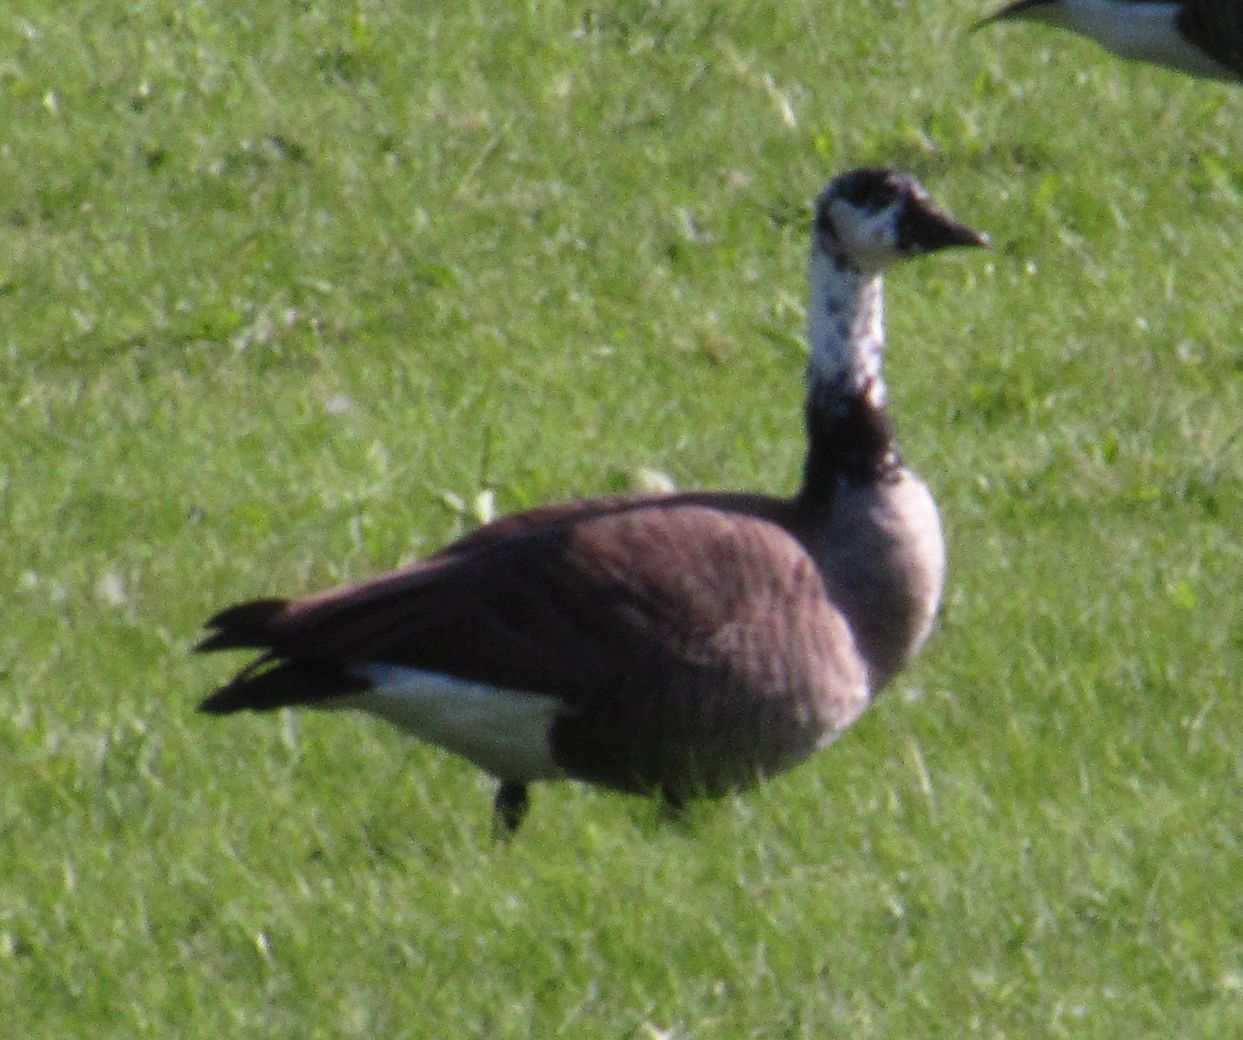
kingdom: Animalia
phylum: Chordata
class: Aves
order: Anseriformes
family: Anatidae
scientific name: Anatidae
